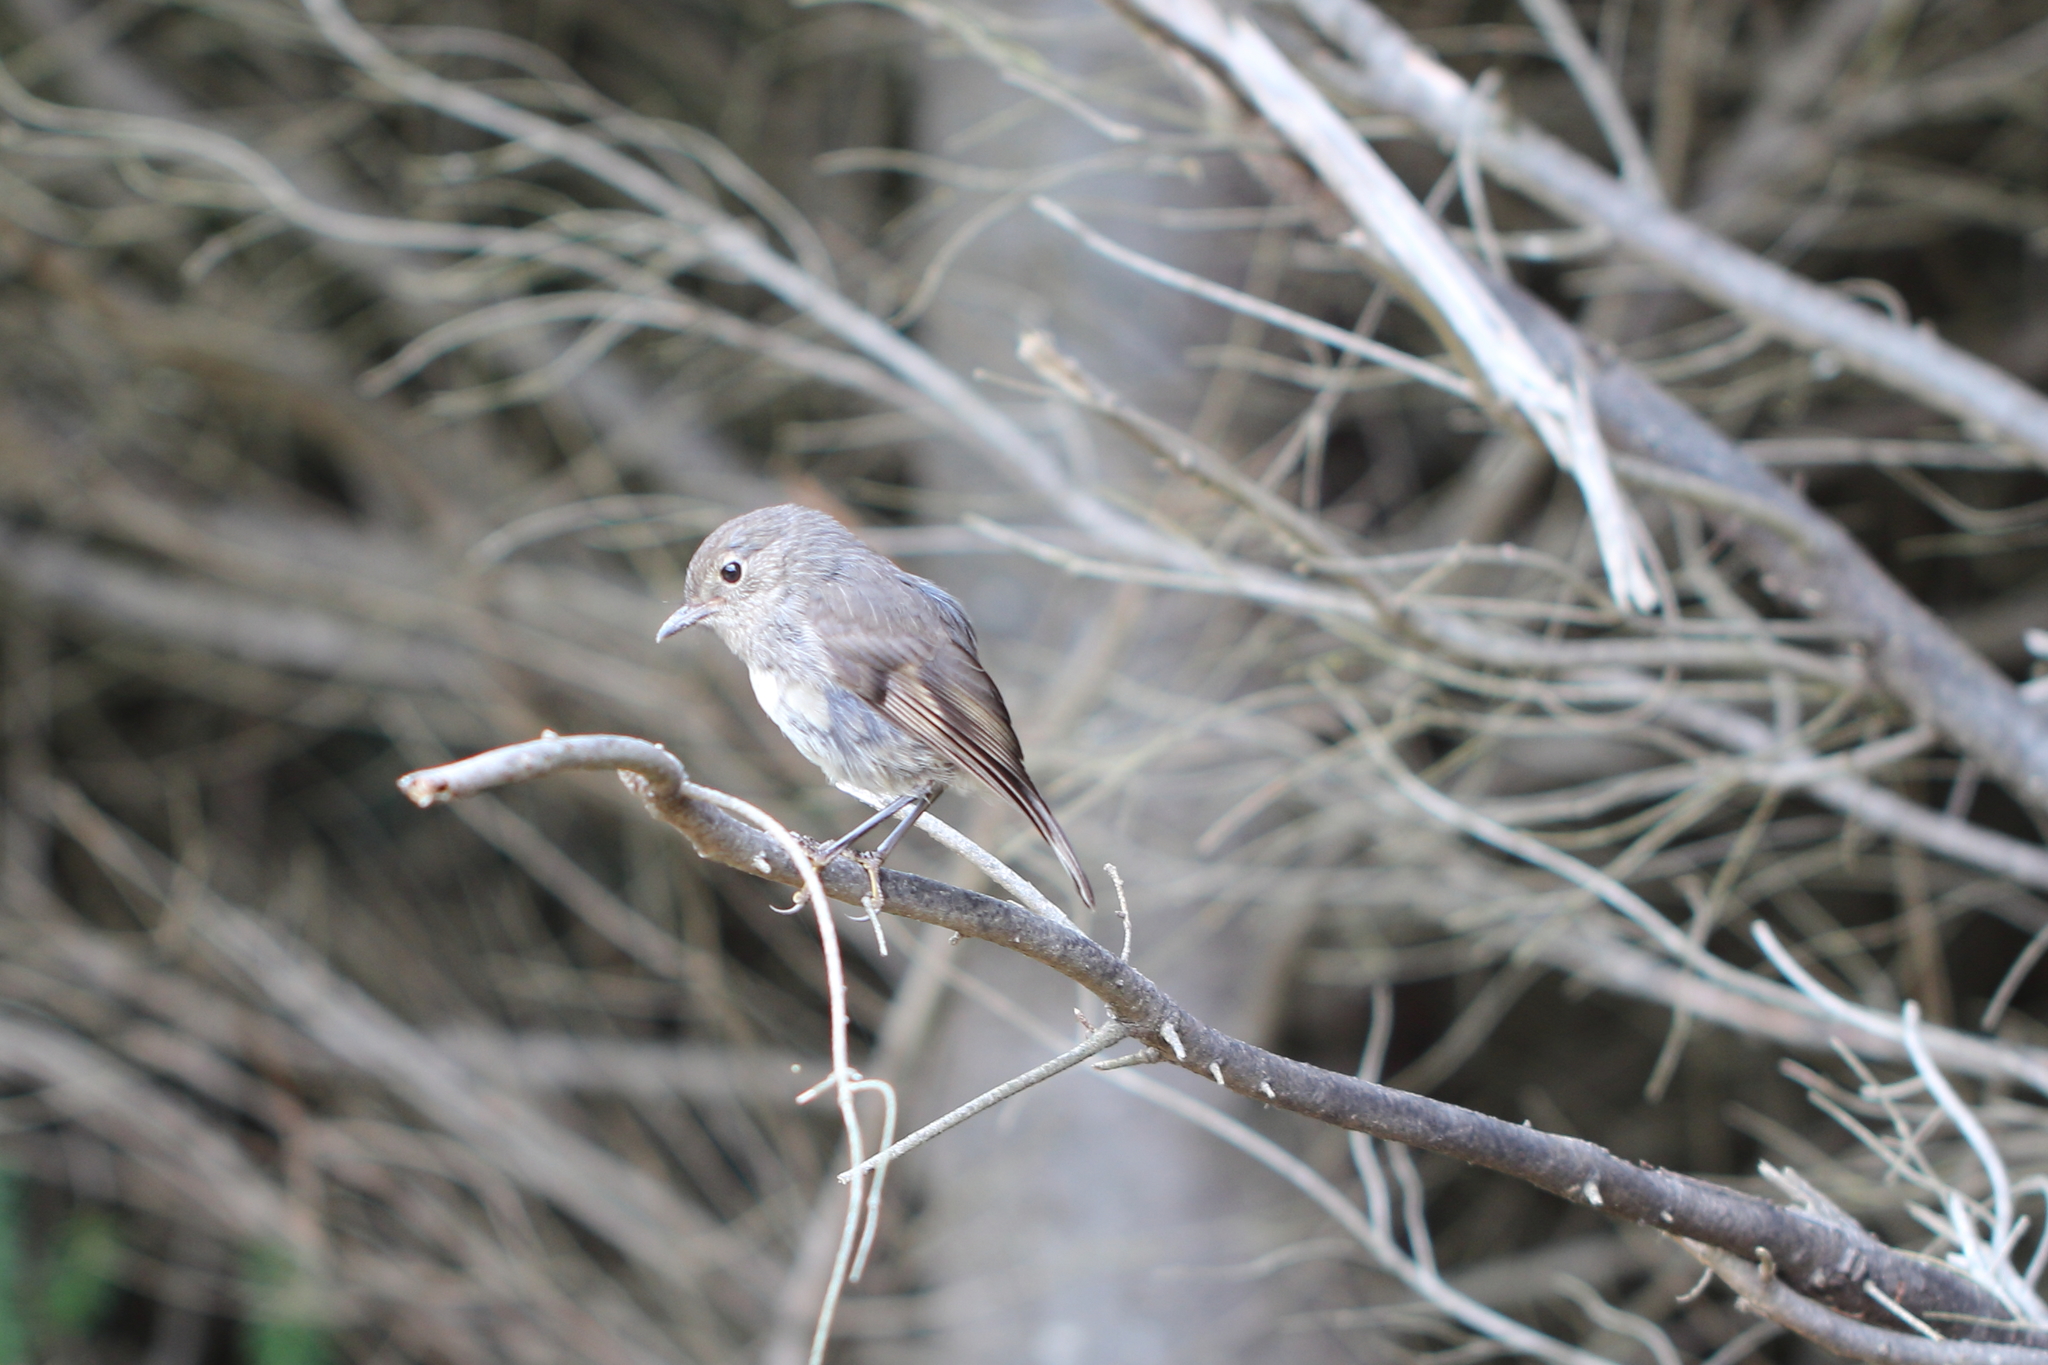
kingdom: Animalia
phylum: Chordata
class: Aves
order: Passeriformes
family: Petroicidae
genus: Petroica
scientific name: Petroica australis
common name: New zealand robin
